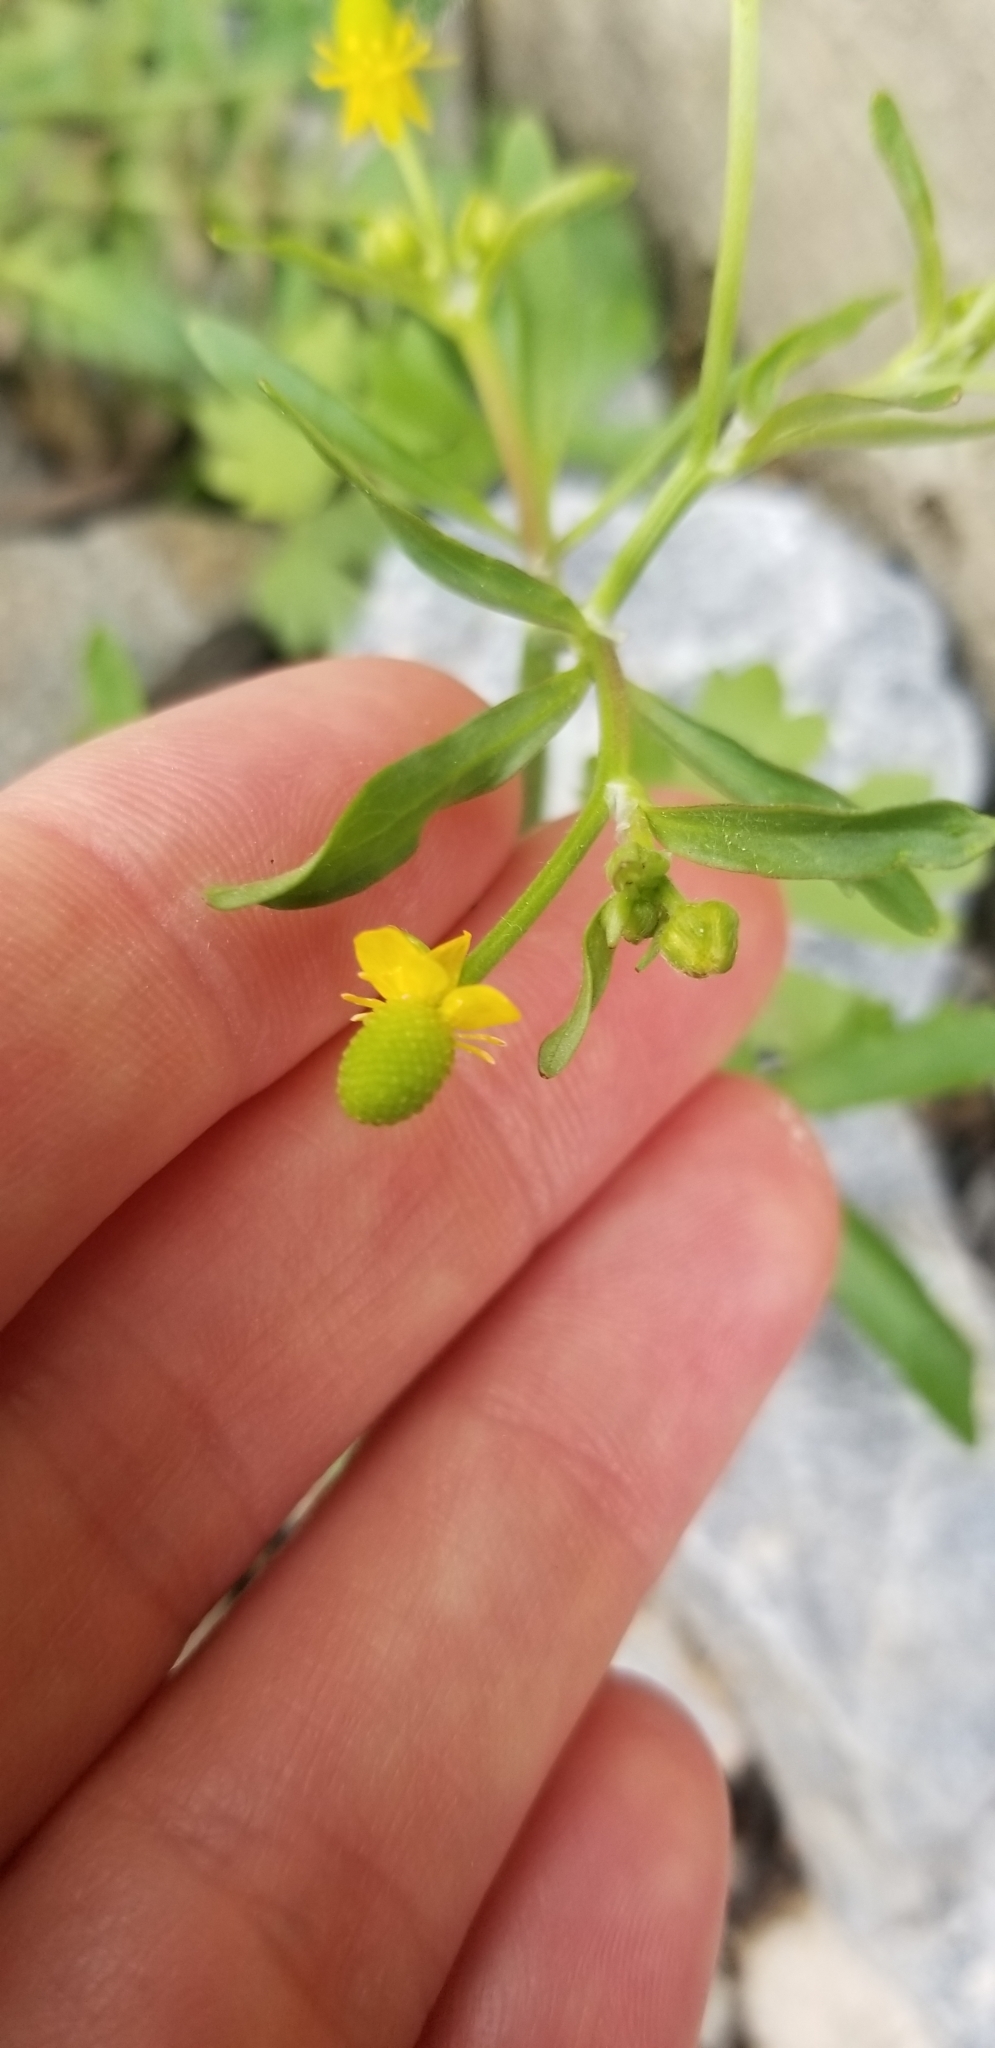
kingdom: Plantae
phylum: Tracheophyta
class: Magnoliopsida
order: Ranunculales
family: Ranunculaceae
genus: Ranunculus
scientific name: Ranunculus sceleratus
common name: Celery-leaved buttercup
